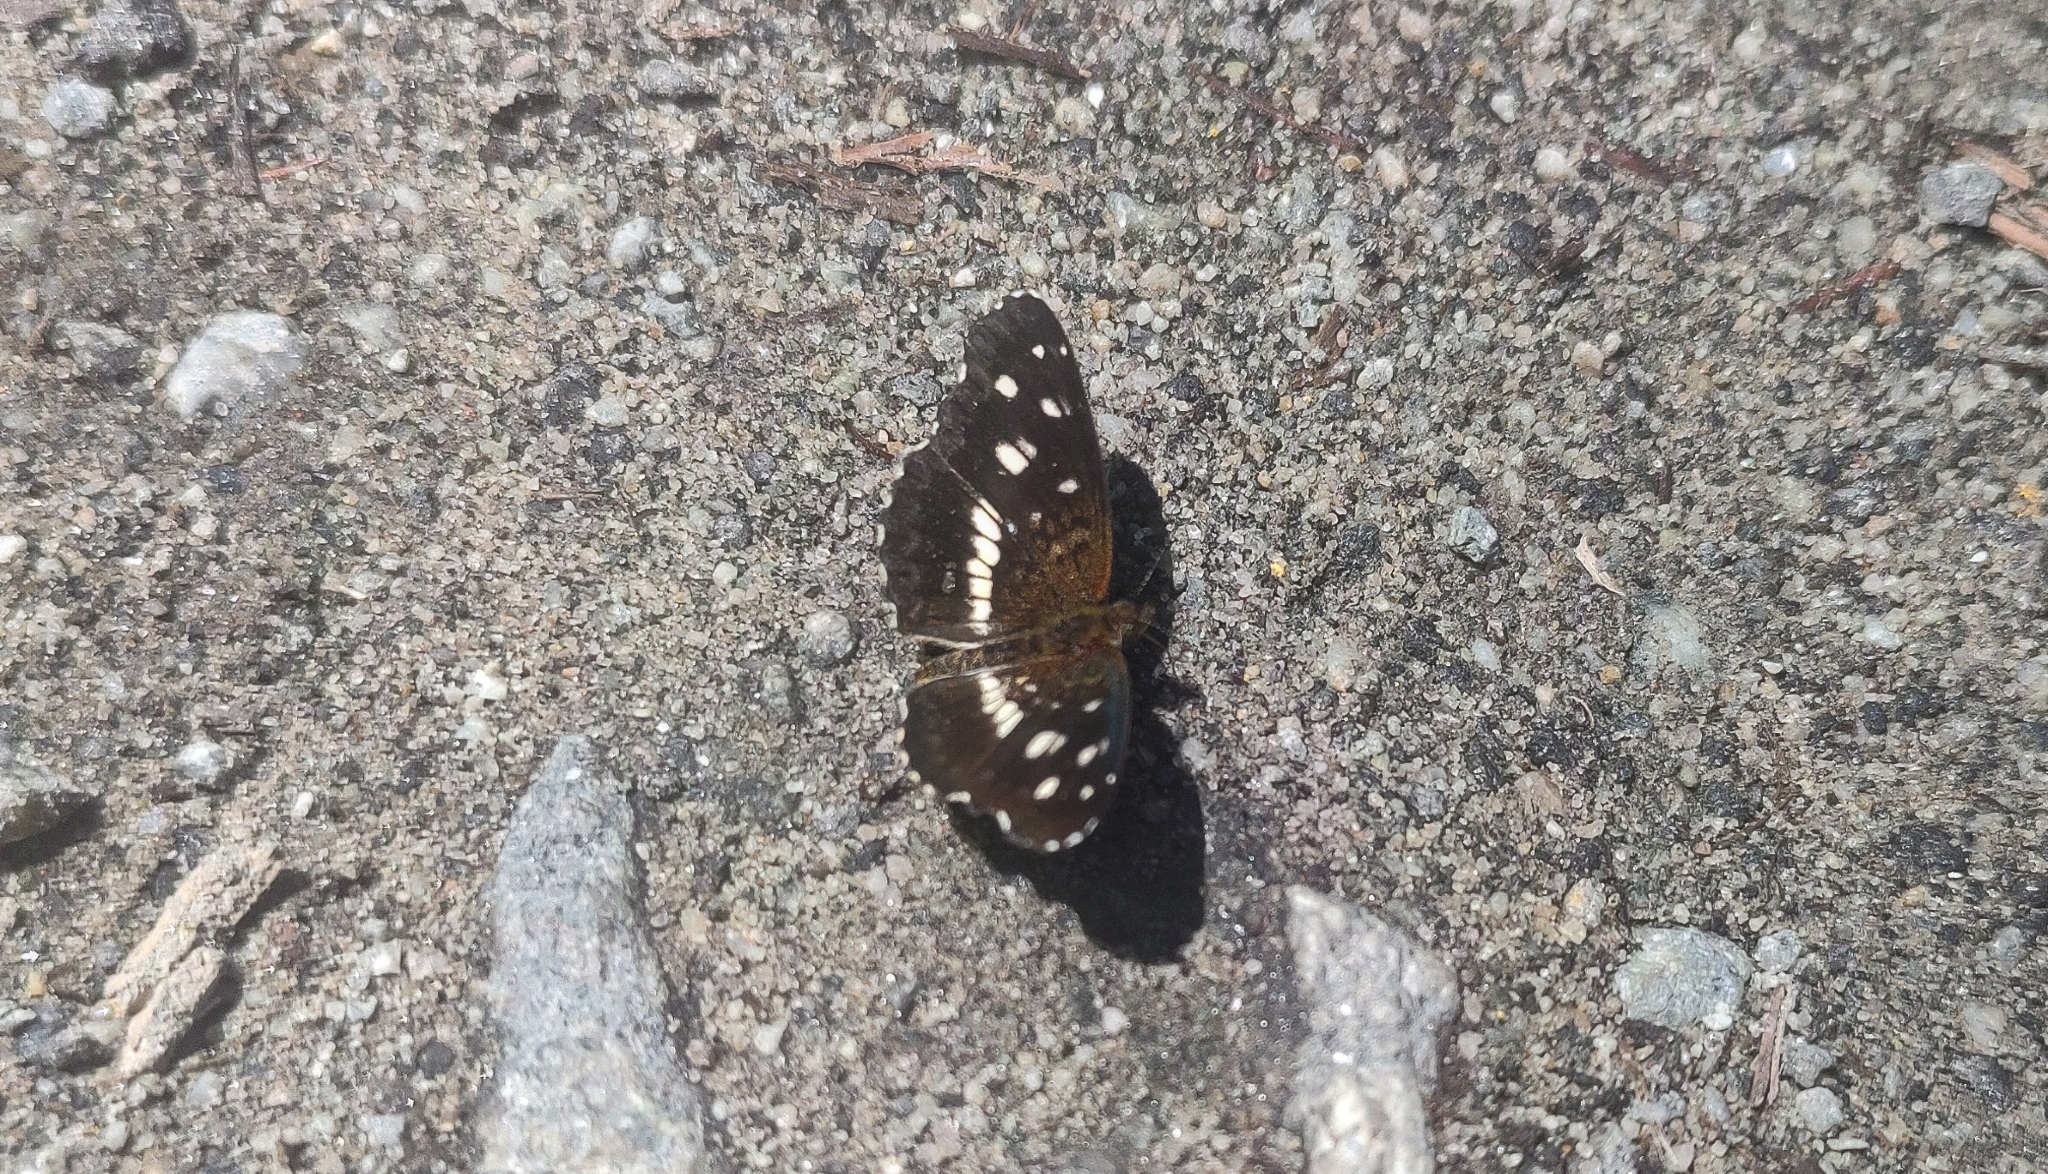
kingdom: Animalia
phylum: Arthropoda
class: Insecta
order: Lepidoptera
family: Nymphalidae
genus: Ortilia
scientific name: Ortilia ithra
